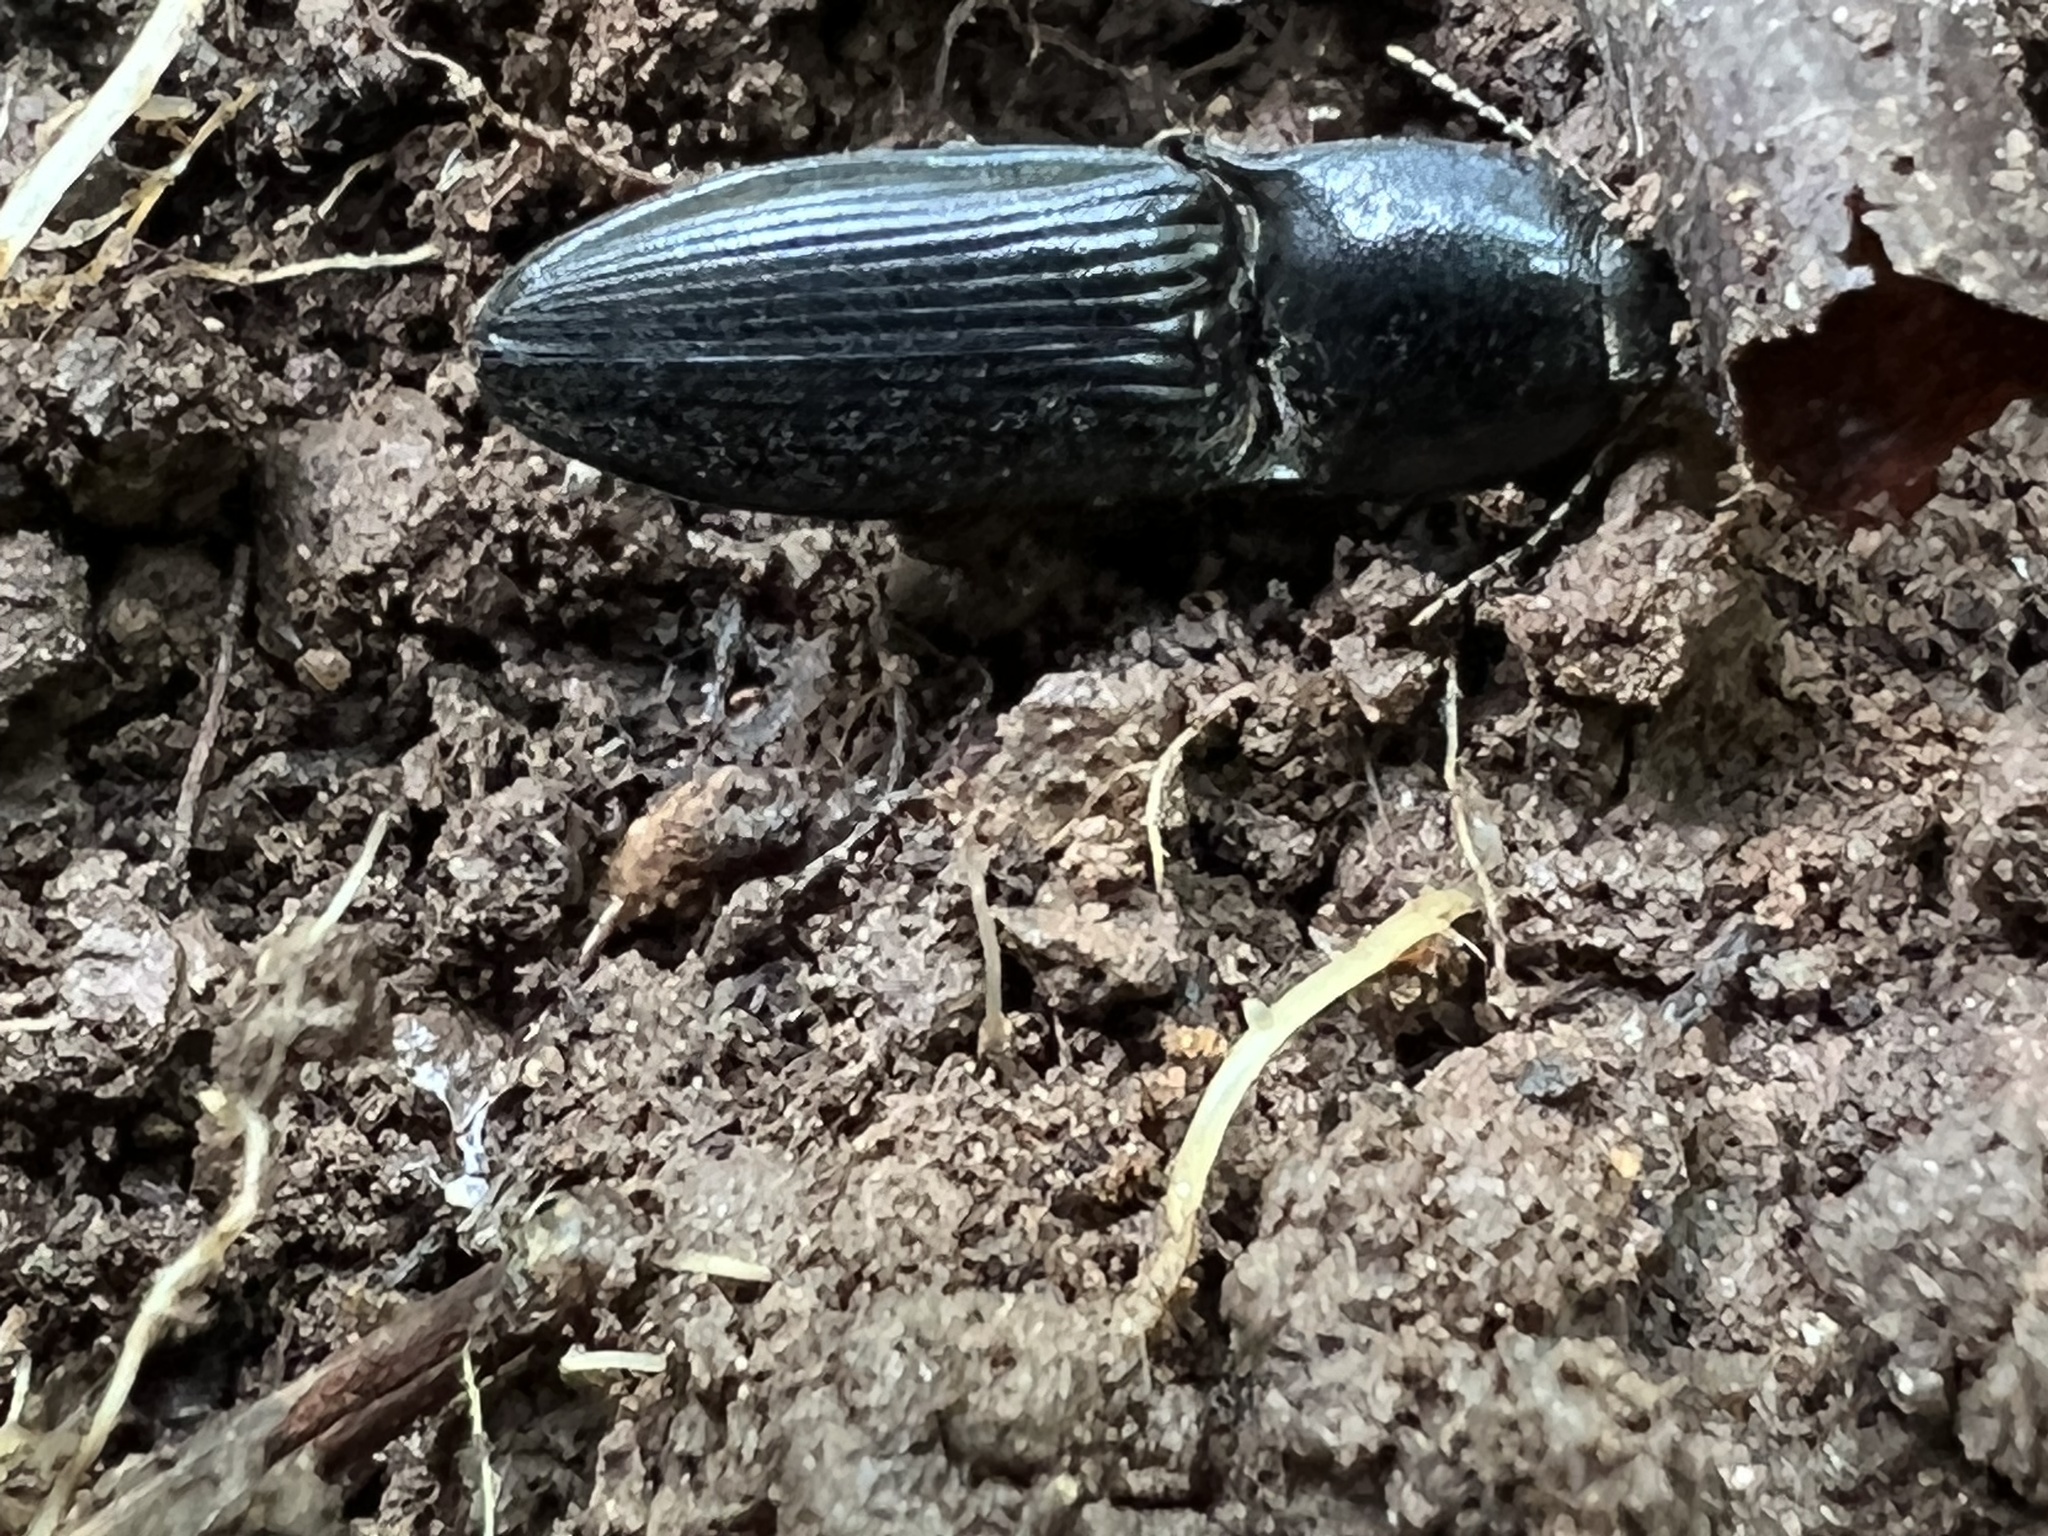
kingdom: Animalia
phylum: Arthropoda
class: Insecta
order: Coleoptera
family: Elateridae
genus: Neopristilophus
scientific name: Neopristilophus
